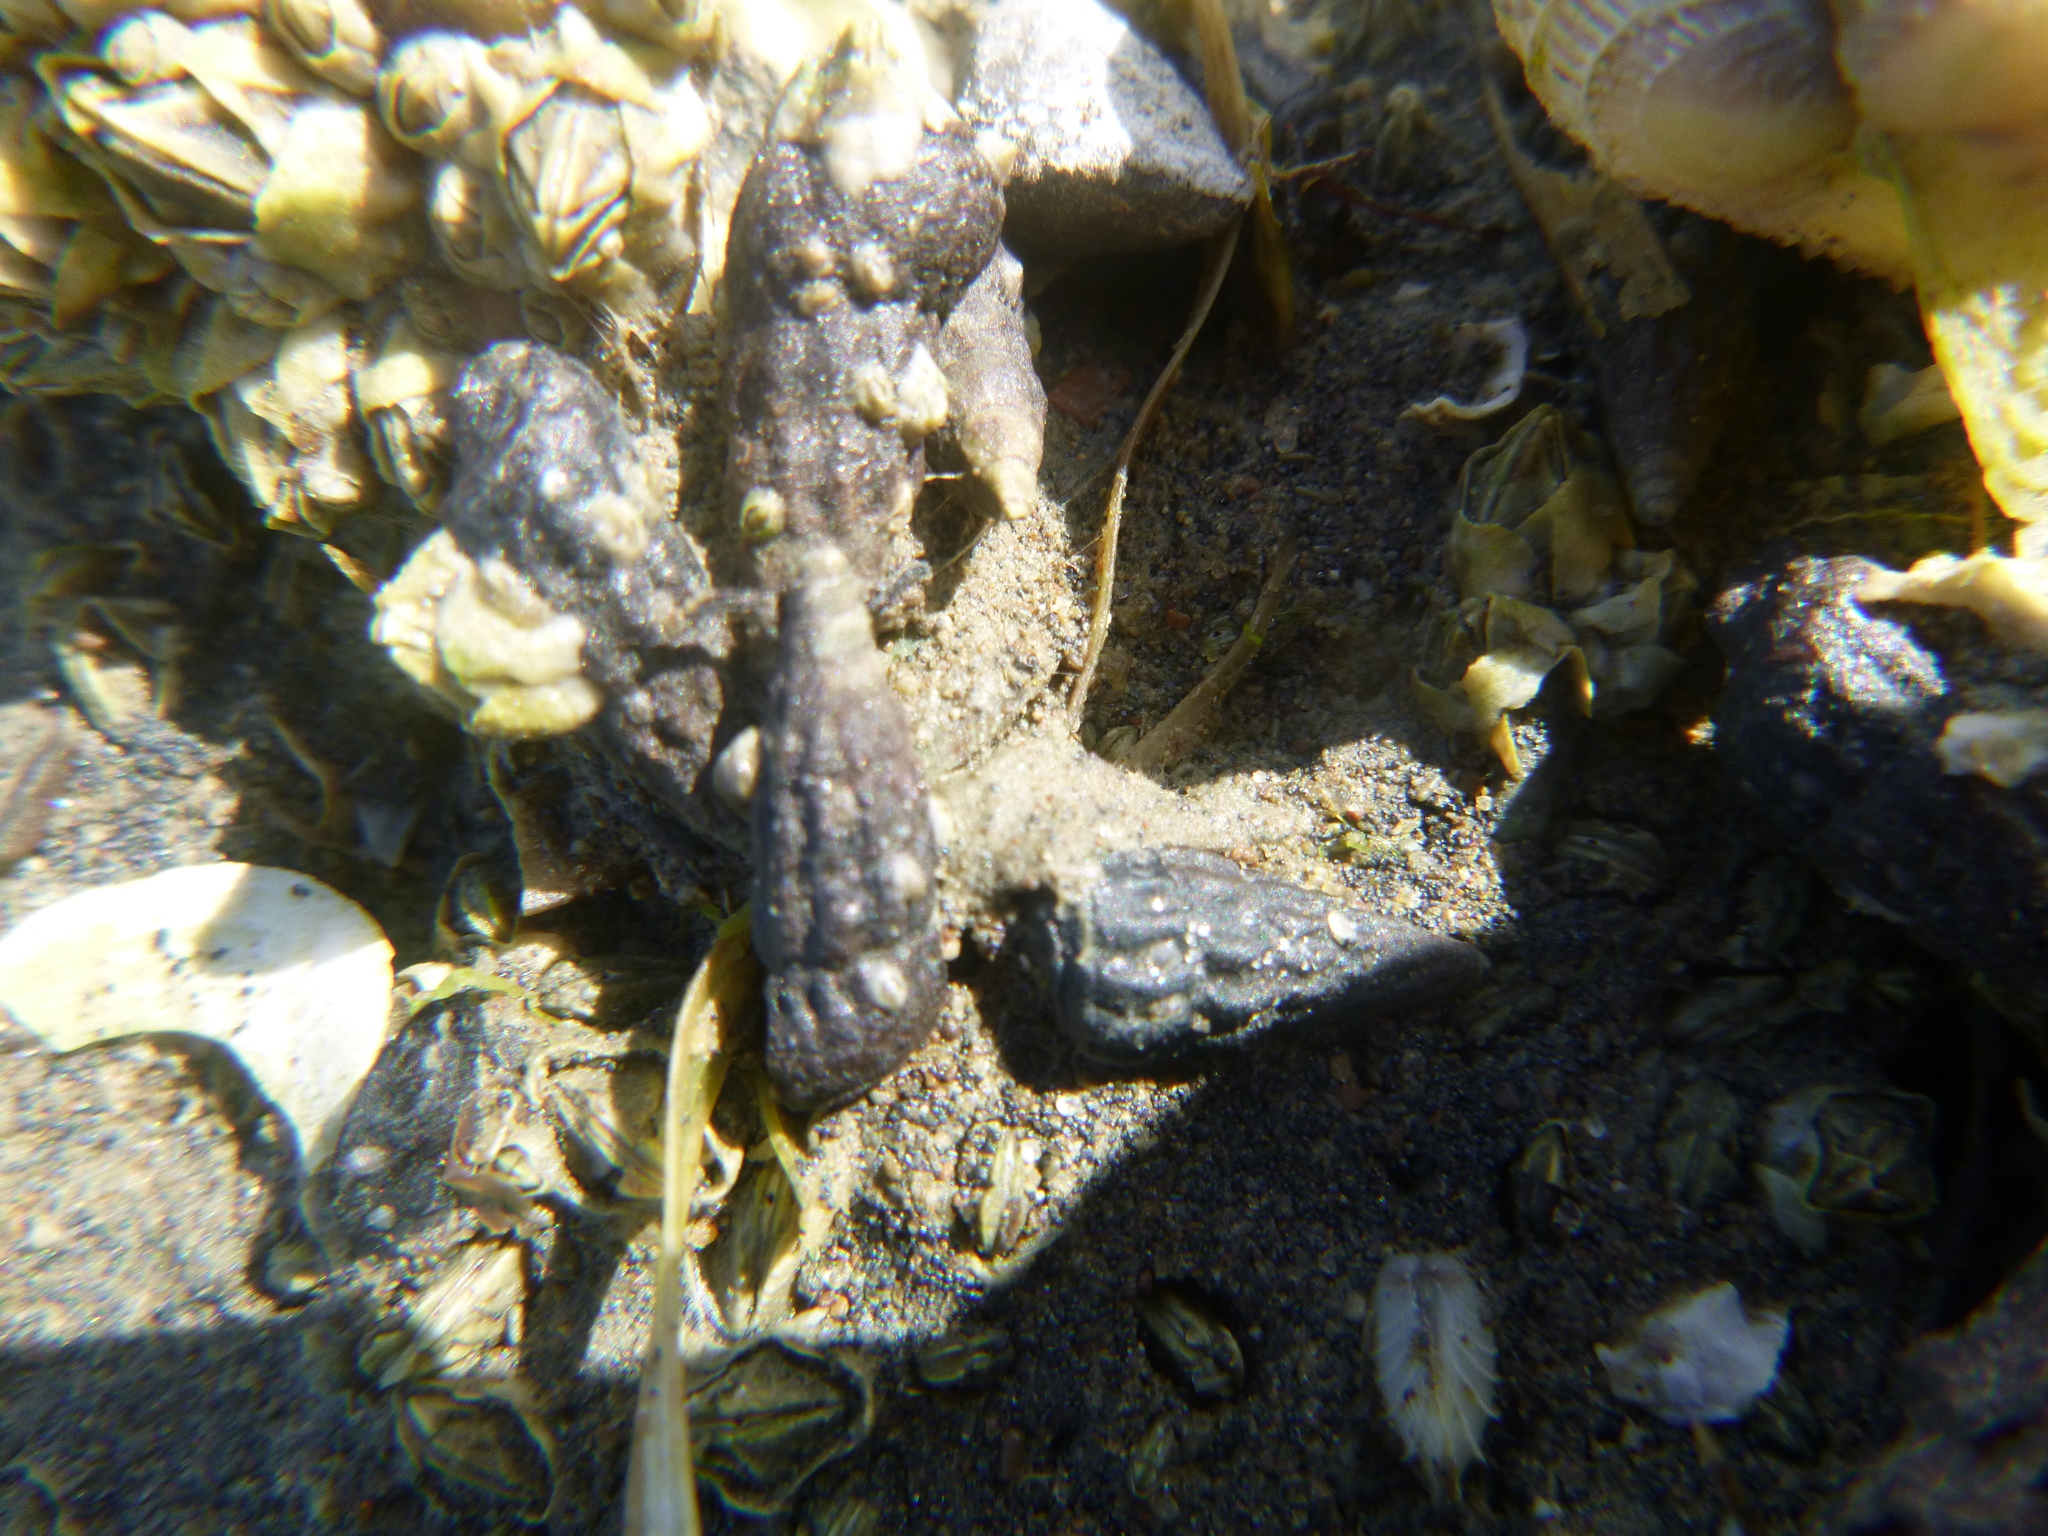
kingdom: Animalia
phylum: Mollusca
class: Gastropoda
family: Batillariidae
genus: Zeacumantus
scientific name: Zeacumantus subcarinatus
